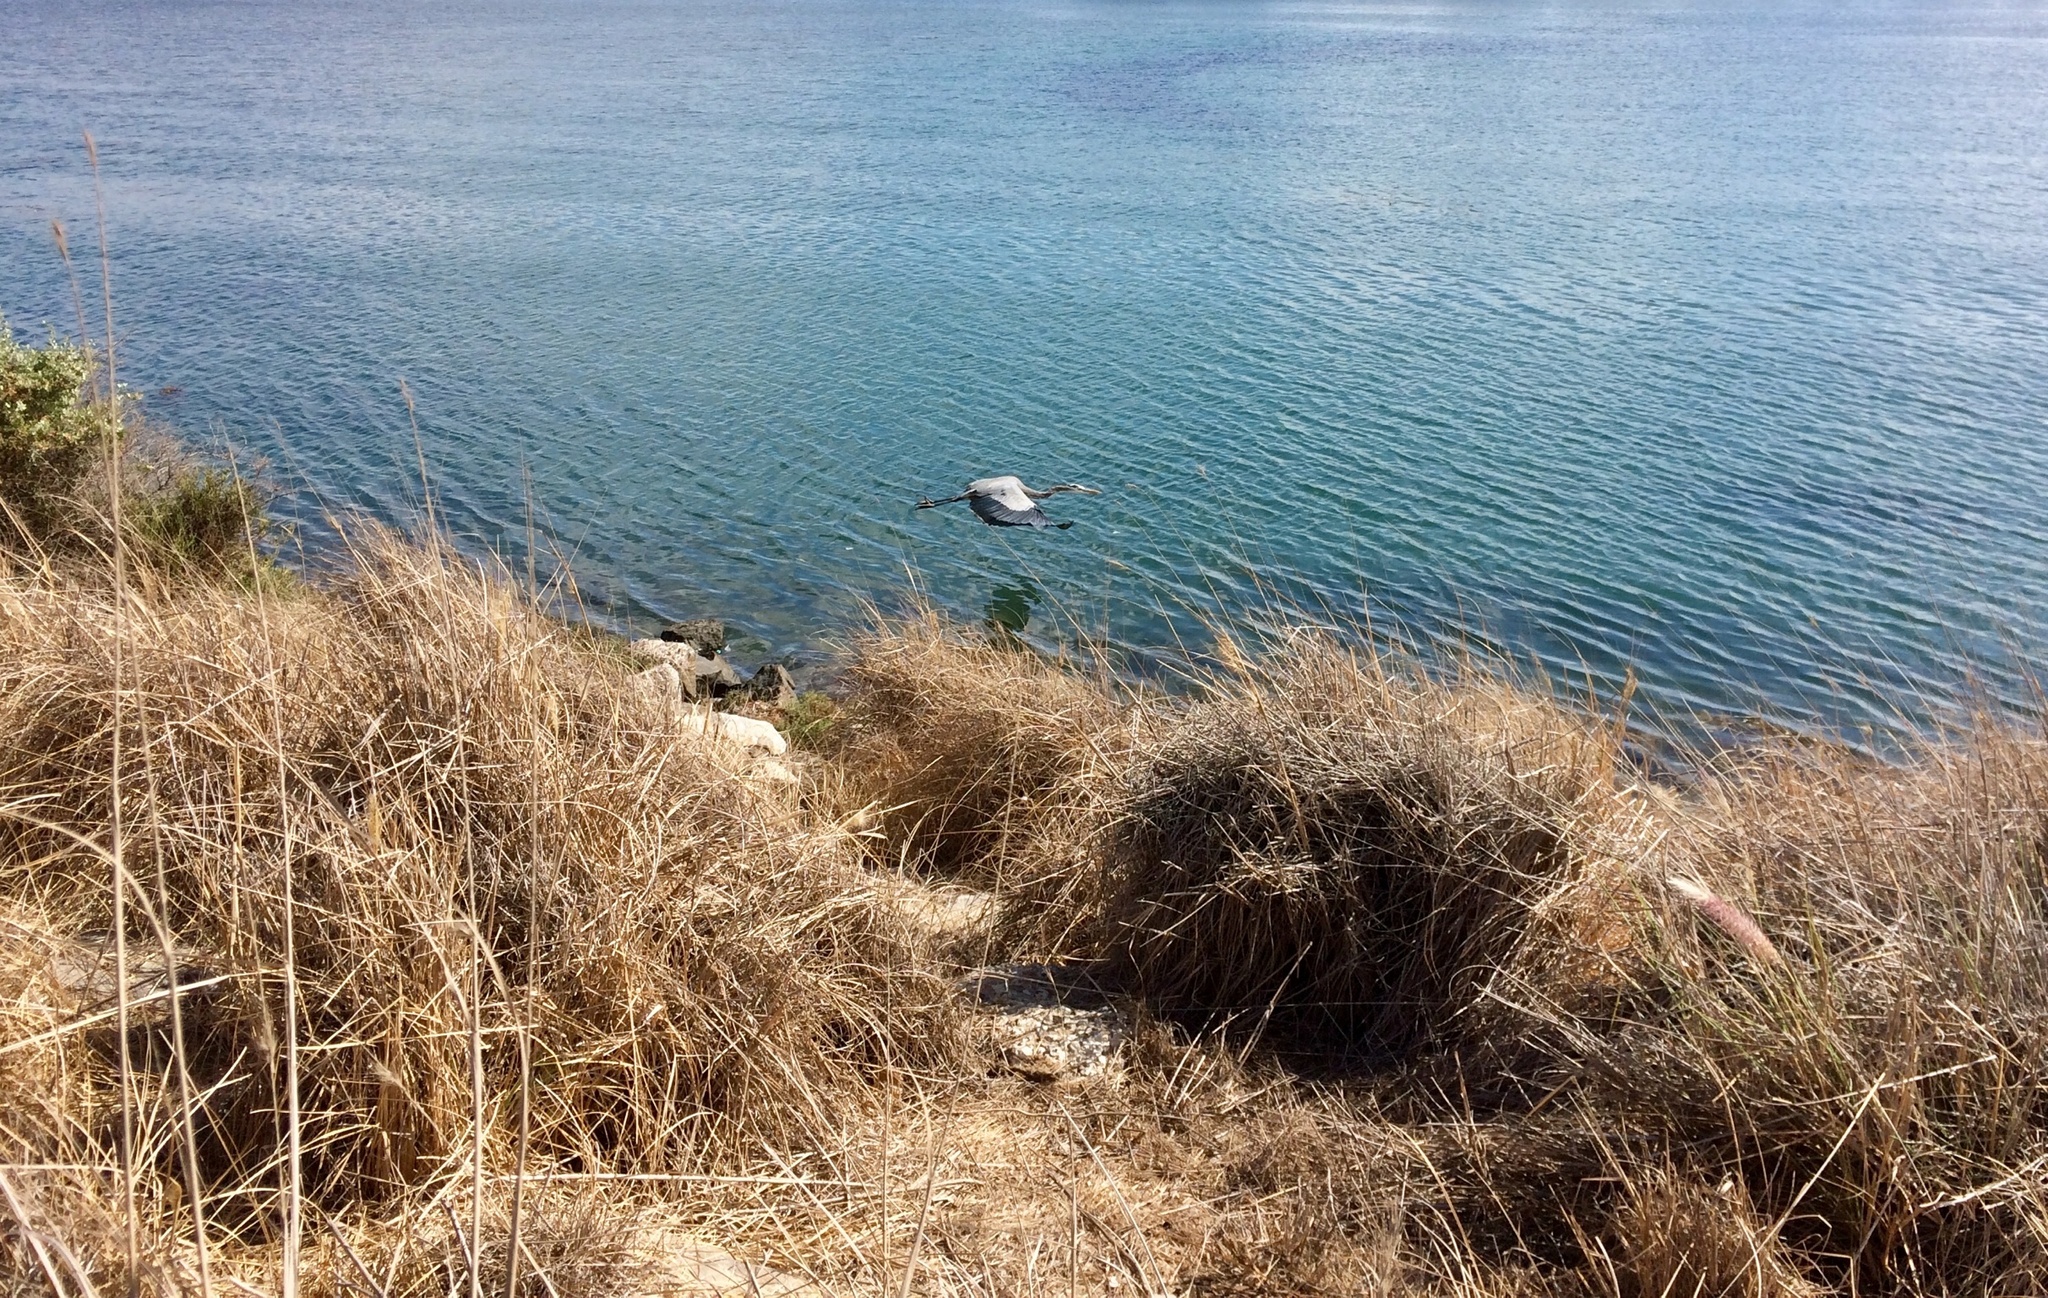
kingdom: Animalia
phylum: Chordata
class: Aves
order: Pelecaniformes
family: Ardeidae
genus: Ardea
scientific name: Ardea herodias
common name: Great blue heron
